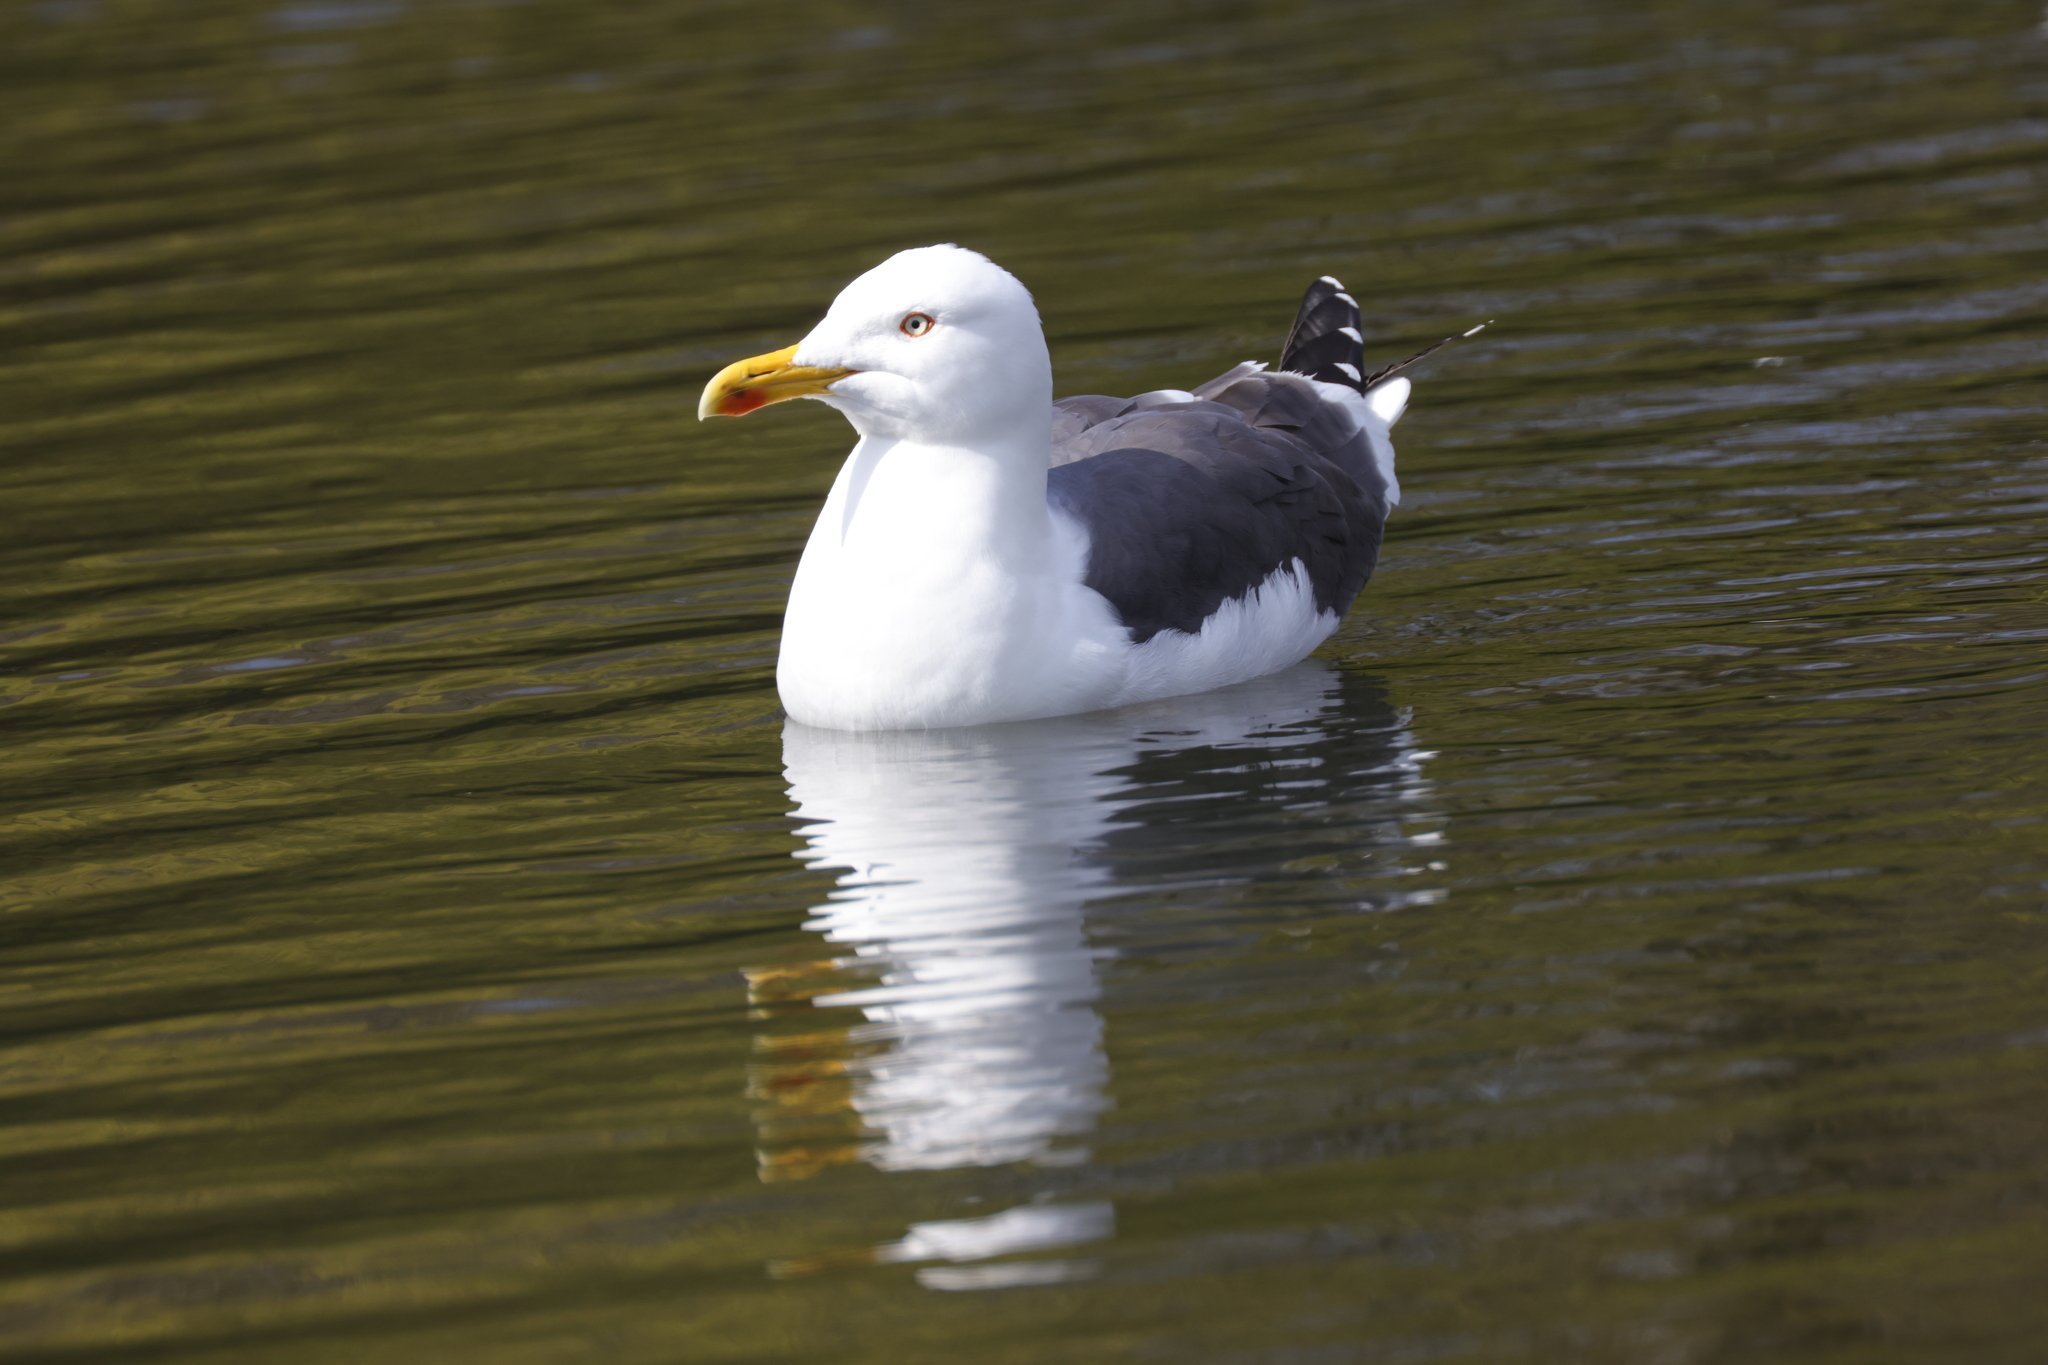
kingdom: Animalia
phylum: Chordata
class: Aves
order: Charadriiformes
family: Laridae
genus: Larus
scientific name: Larus fuscus
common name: Lesser black-backed gull
